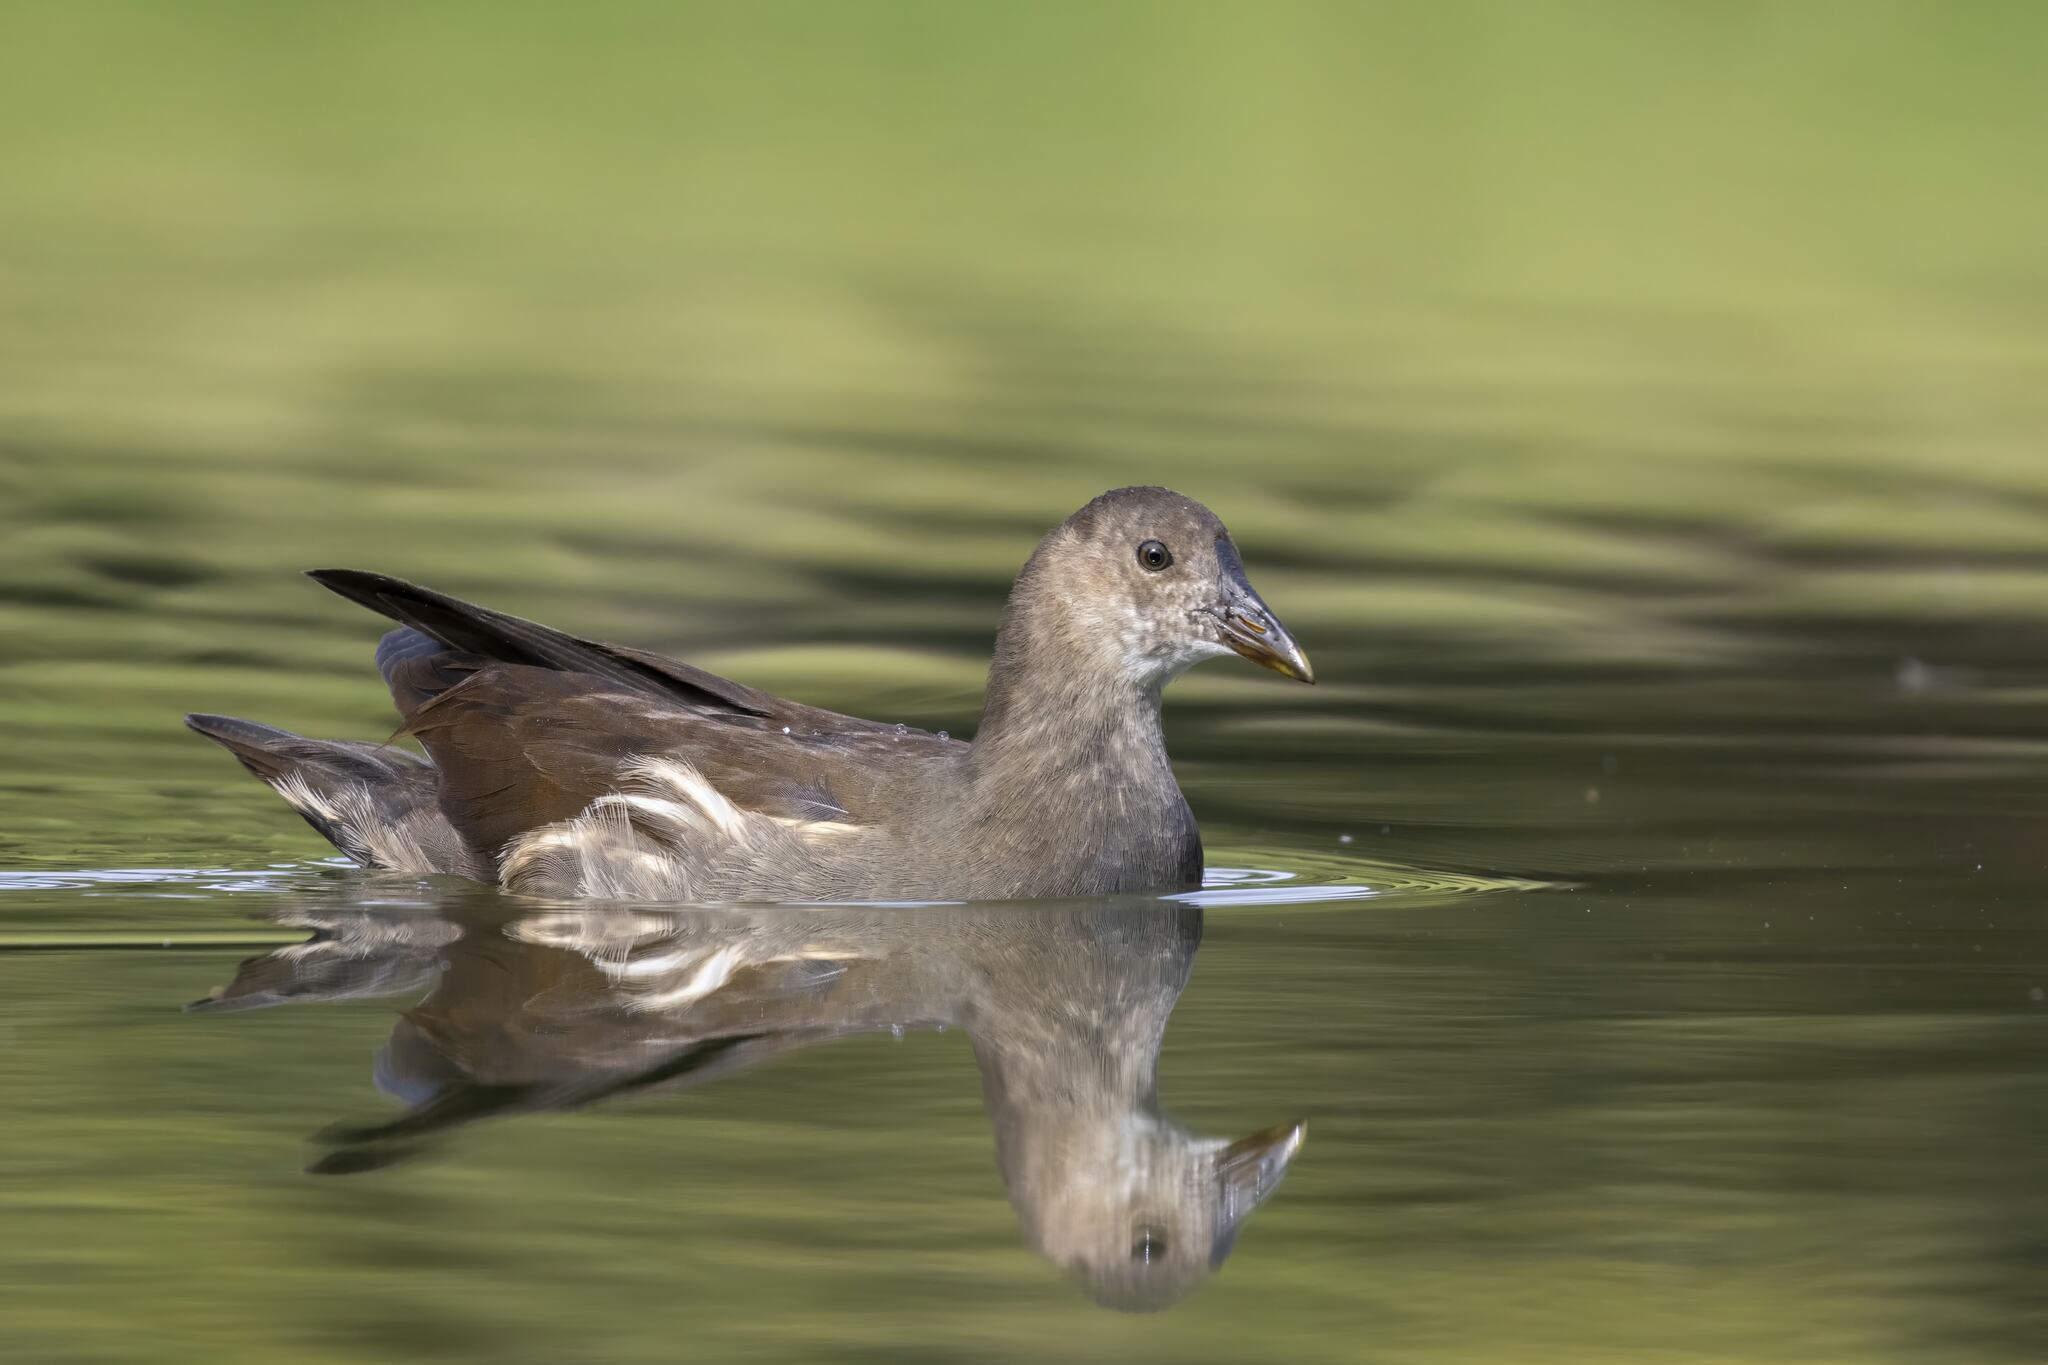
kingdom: Animalia
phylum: Chordata
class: Aves
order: Gruiformes
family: Rallidae
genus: Gallinula
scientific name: Gallinula chloropus
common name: Common moorhen
